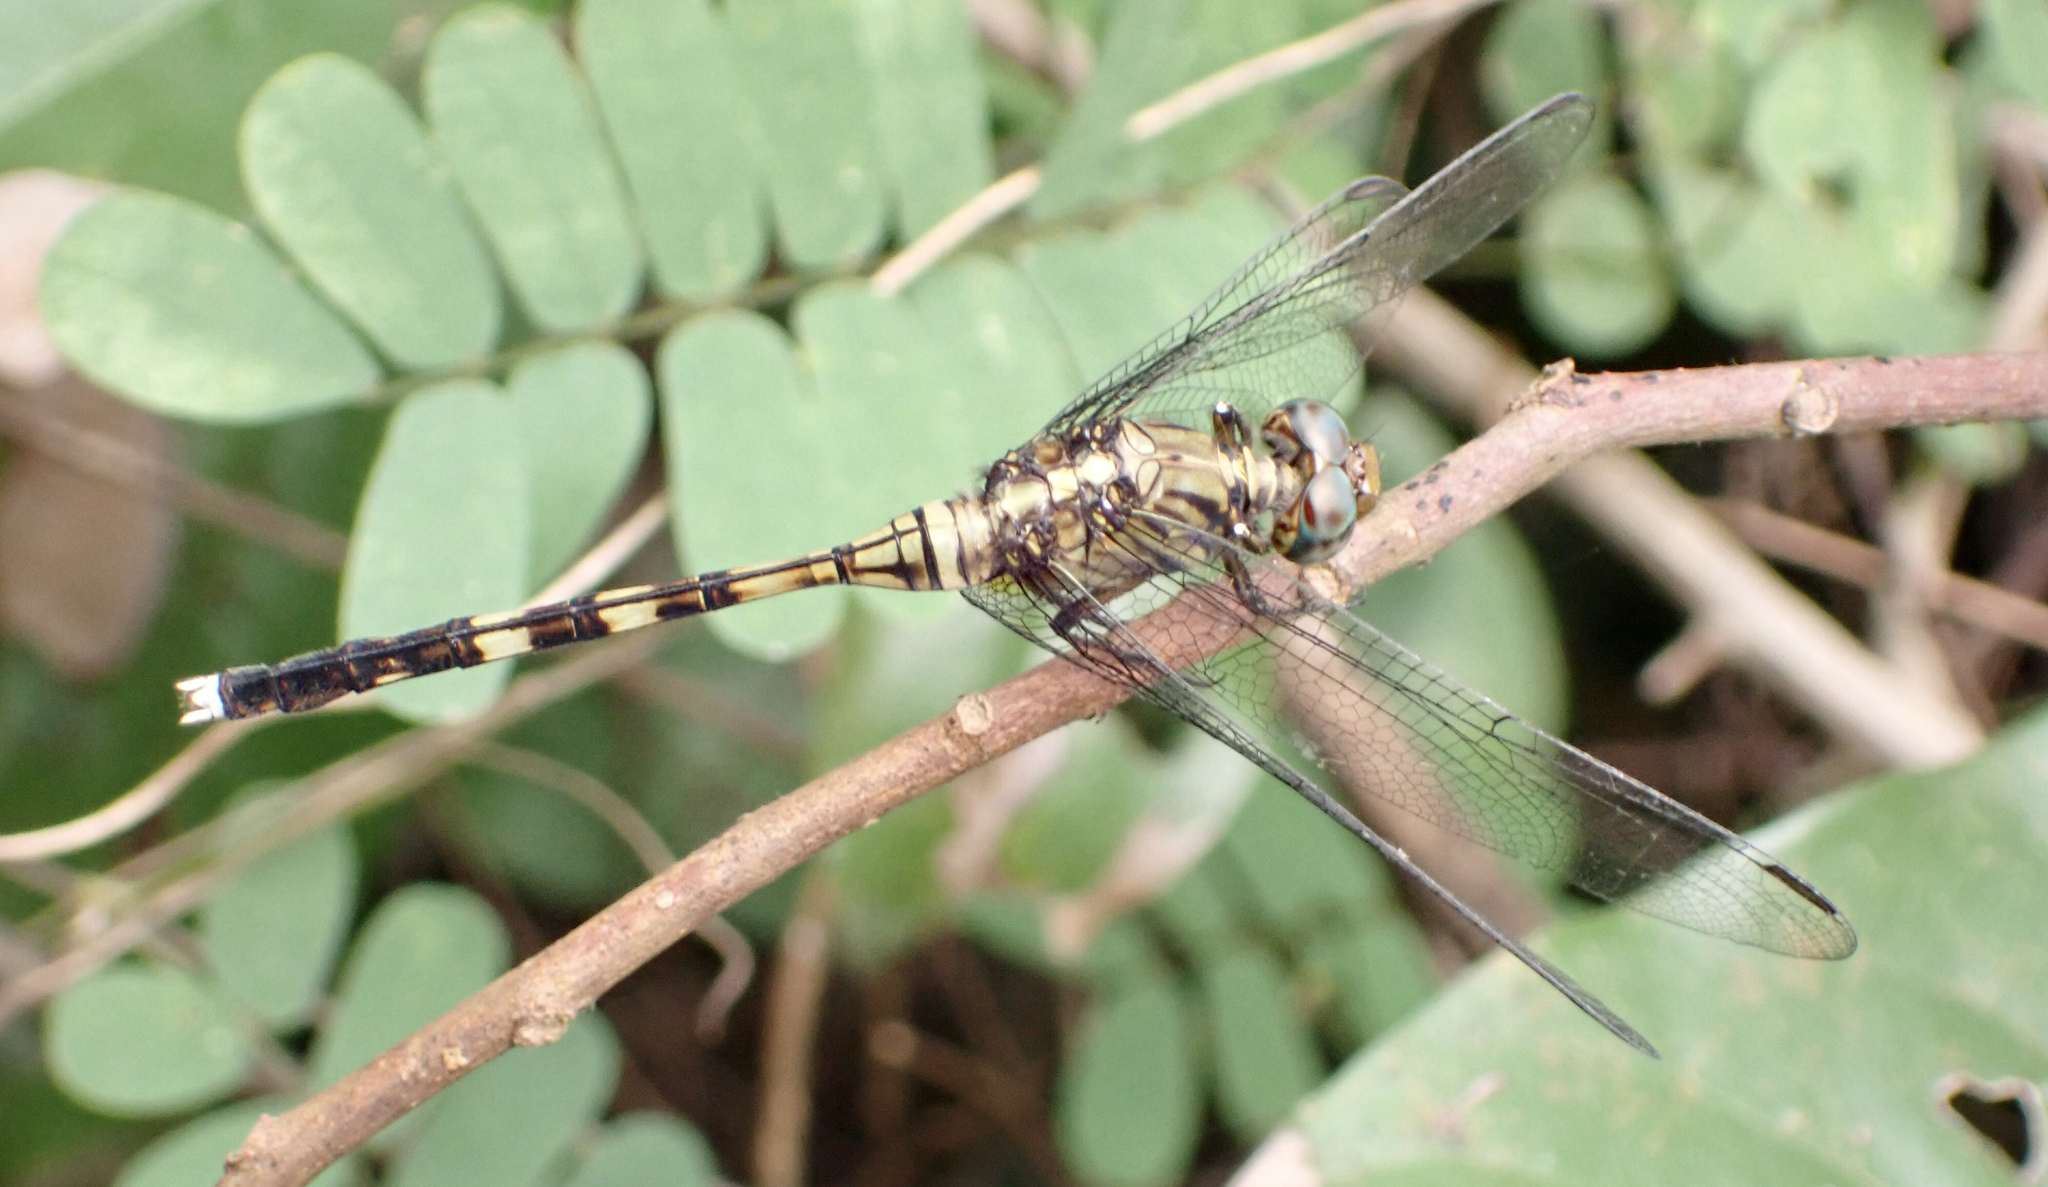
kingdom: Animalia
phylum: Arthropoda
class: Insecta
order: Odonata
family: Libellulidae
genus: Orthetrum
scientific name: Orthetrum stemmale
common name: Bold skimmer
